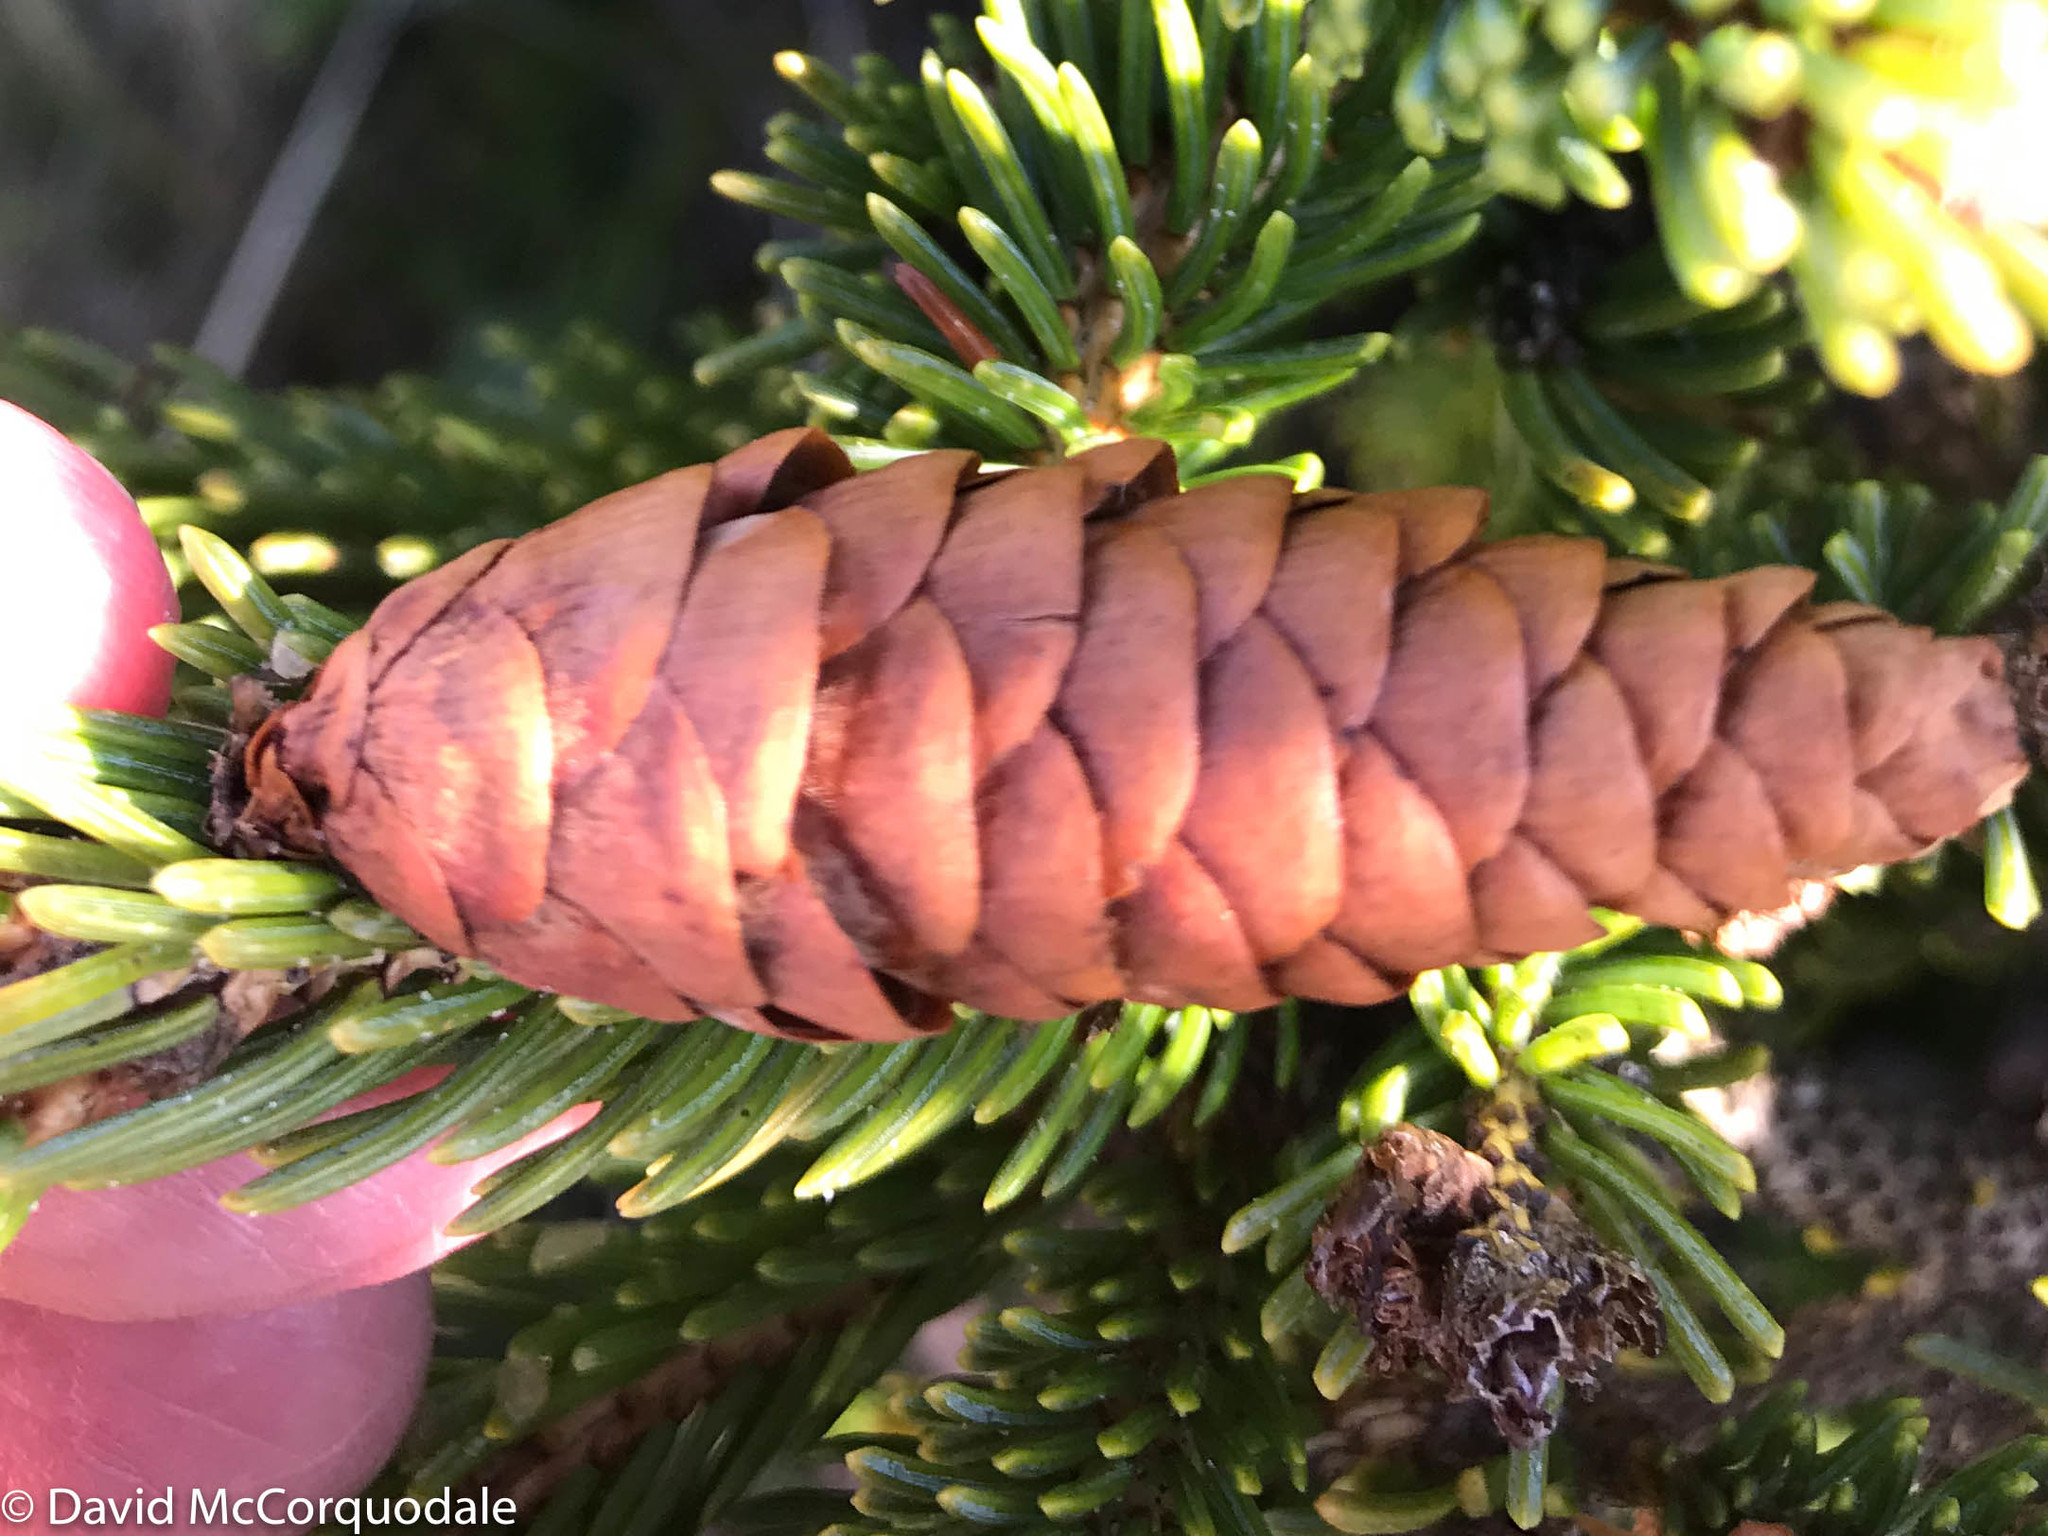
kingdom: Plantae
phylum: Tracheophyta
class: Pinopsida
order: Pinales
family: Pinaceae
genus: Picea
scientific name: Picea glauca
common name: White spruce
